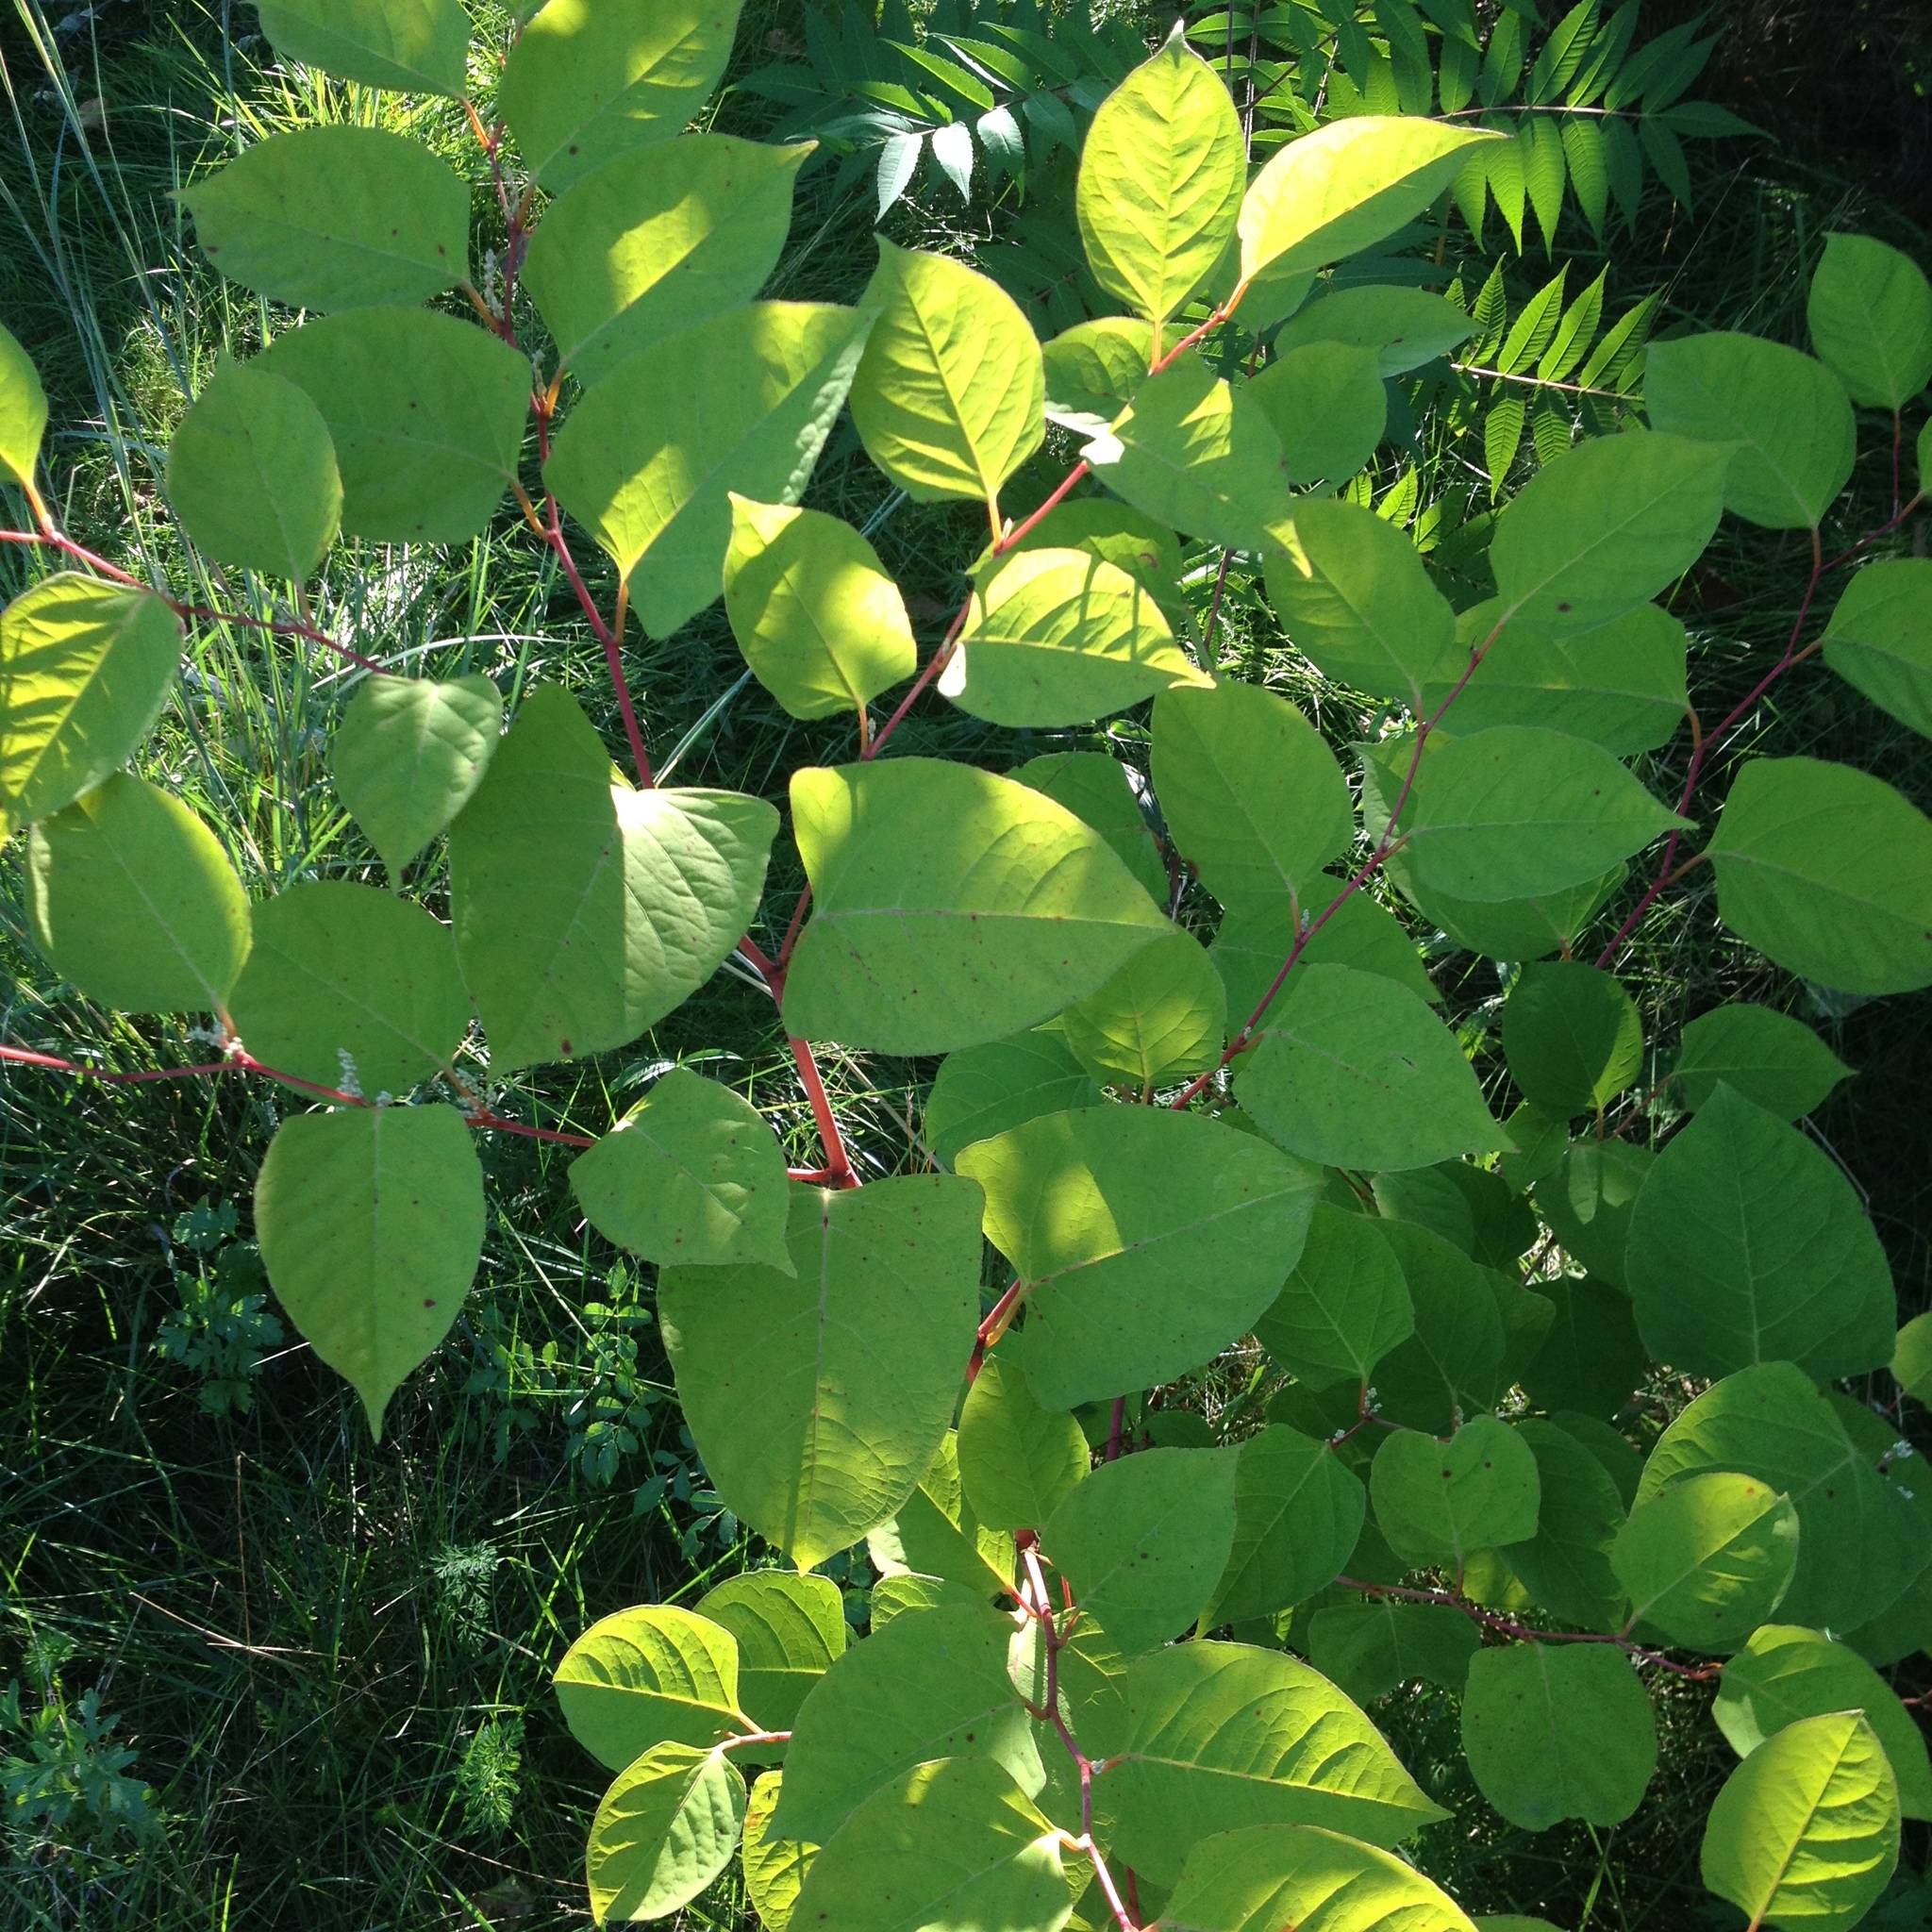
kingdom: Plantae
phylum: Tracheophyta
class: Magnoliopsida
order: Caryophyllales
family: Polygonaceae
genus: Reynoutria
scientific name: Reynoutria japonica
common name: Japanese knotweed
